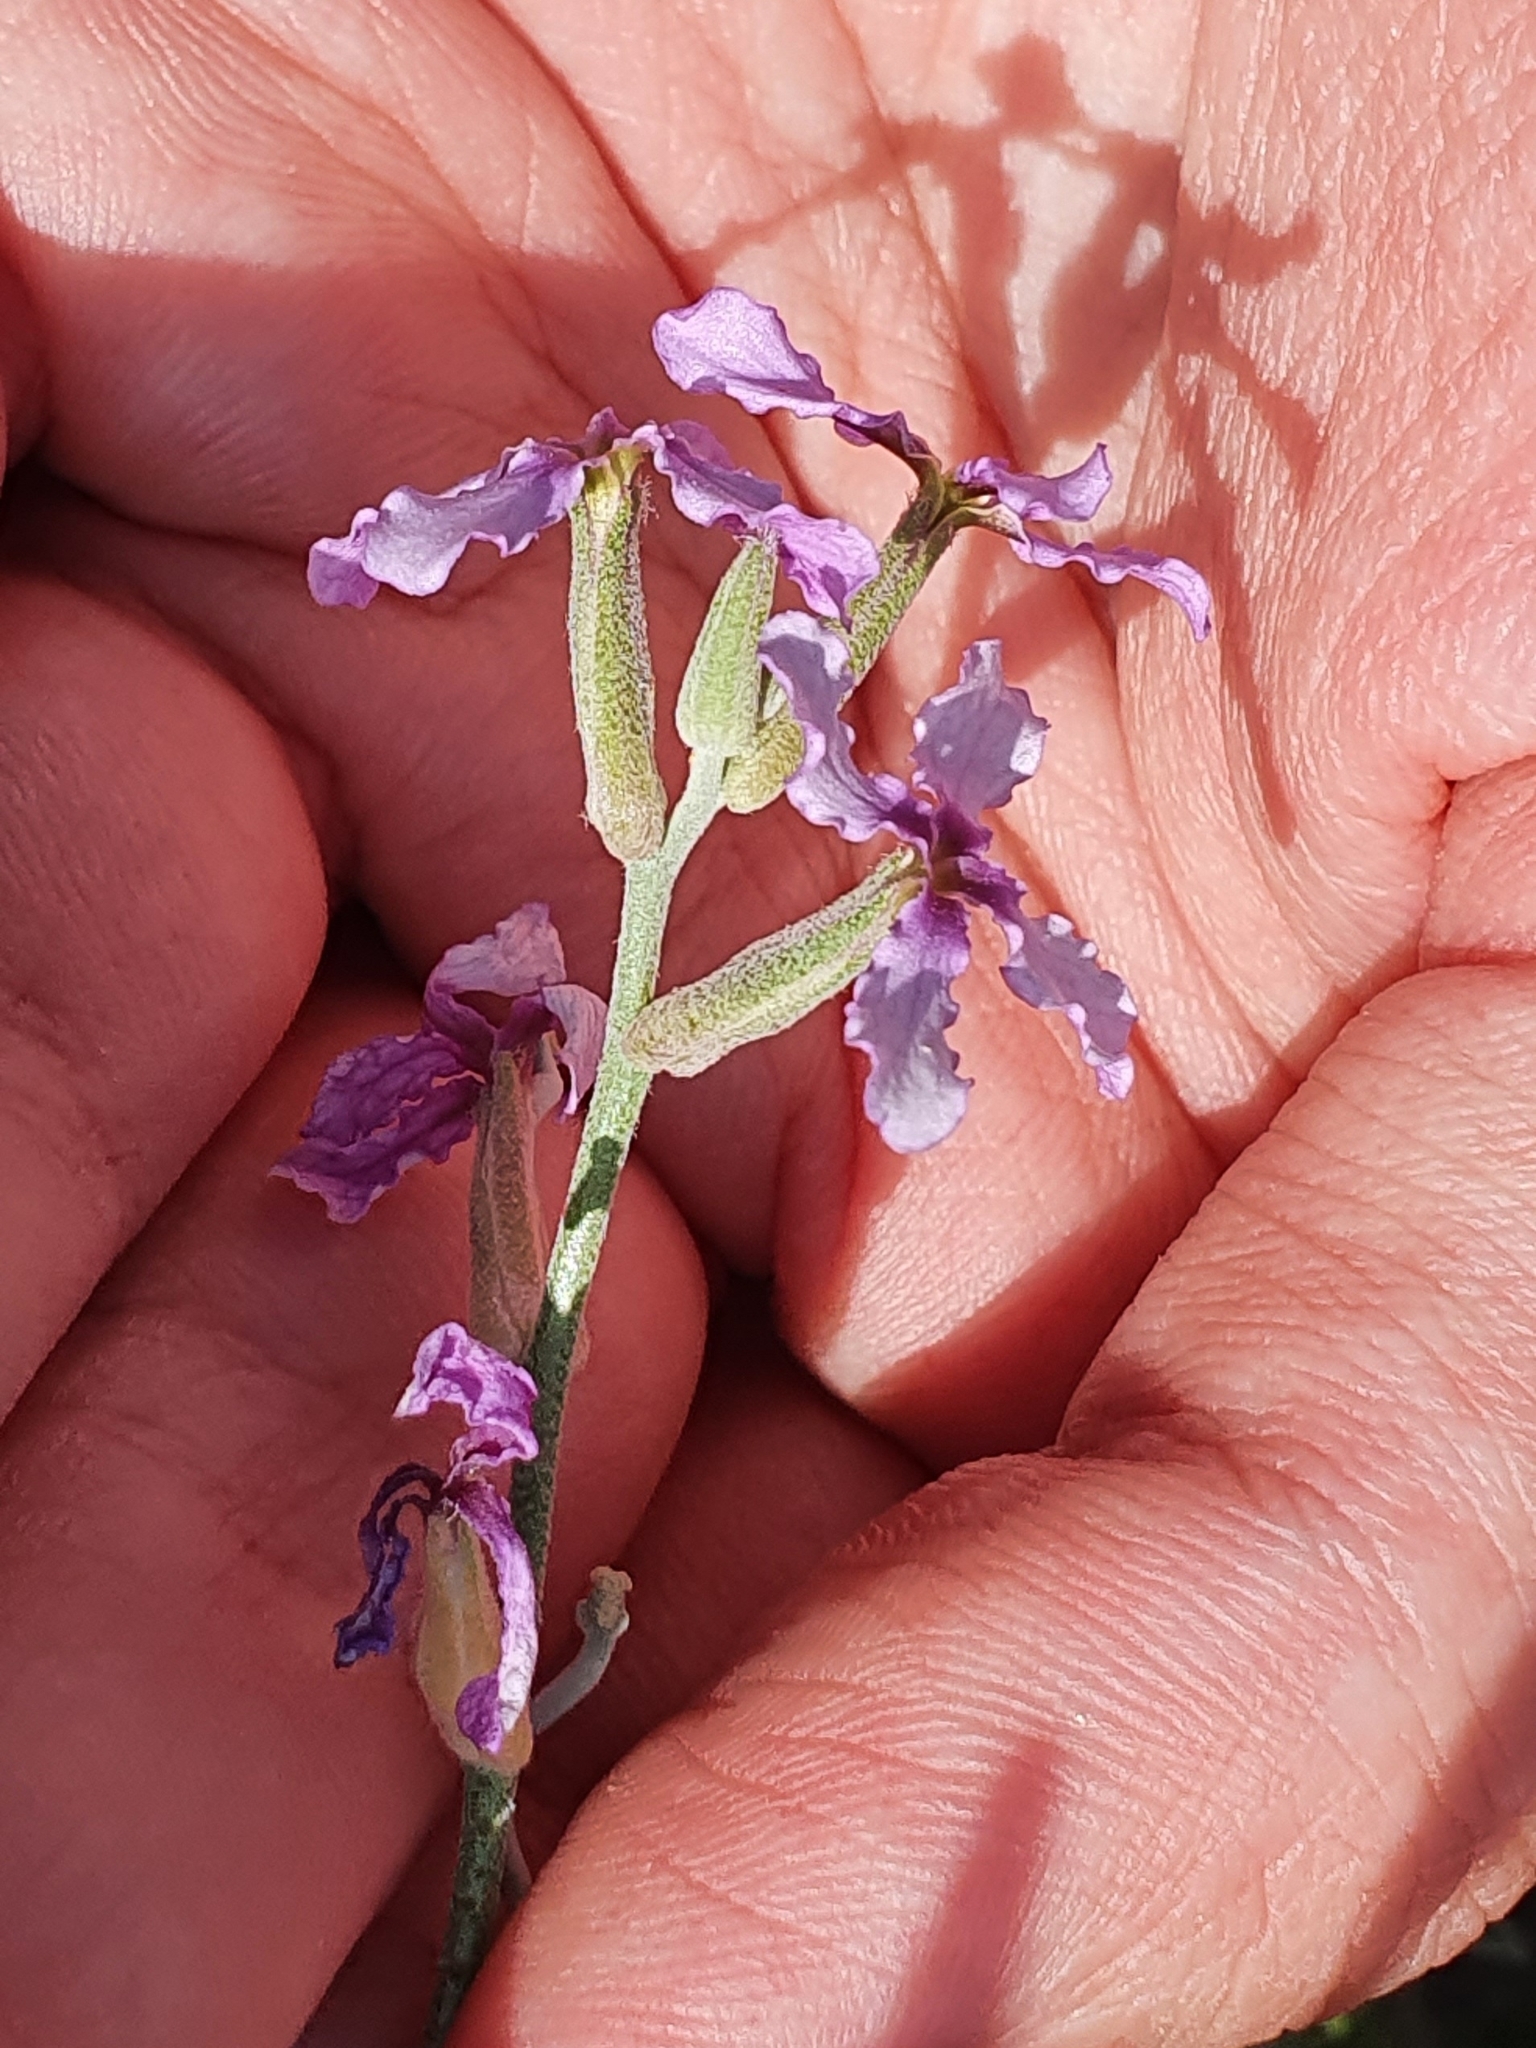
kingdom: Plantae
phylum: Tracheophyta
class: Magnoliopsida
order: Brassicales
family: Brassicaceae
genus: Matthiola
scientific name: Matthiola fruticulosa
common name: Sad stock
